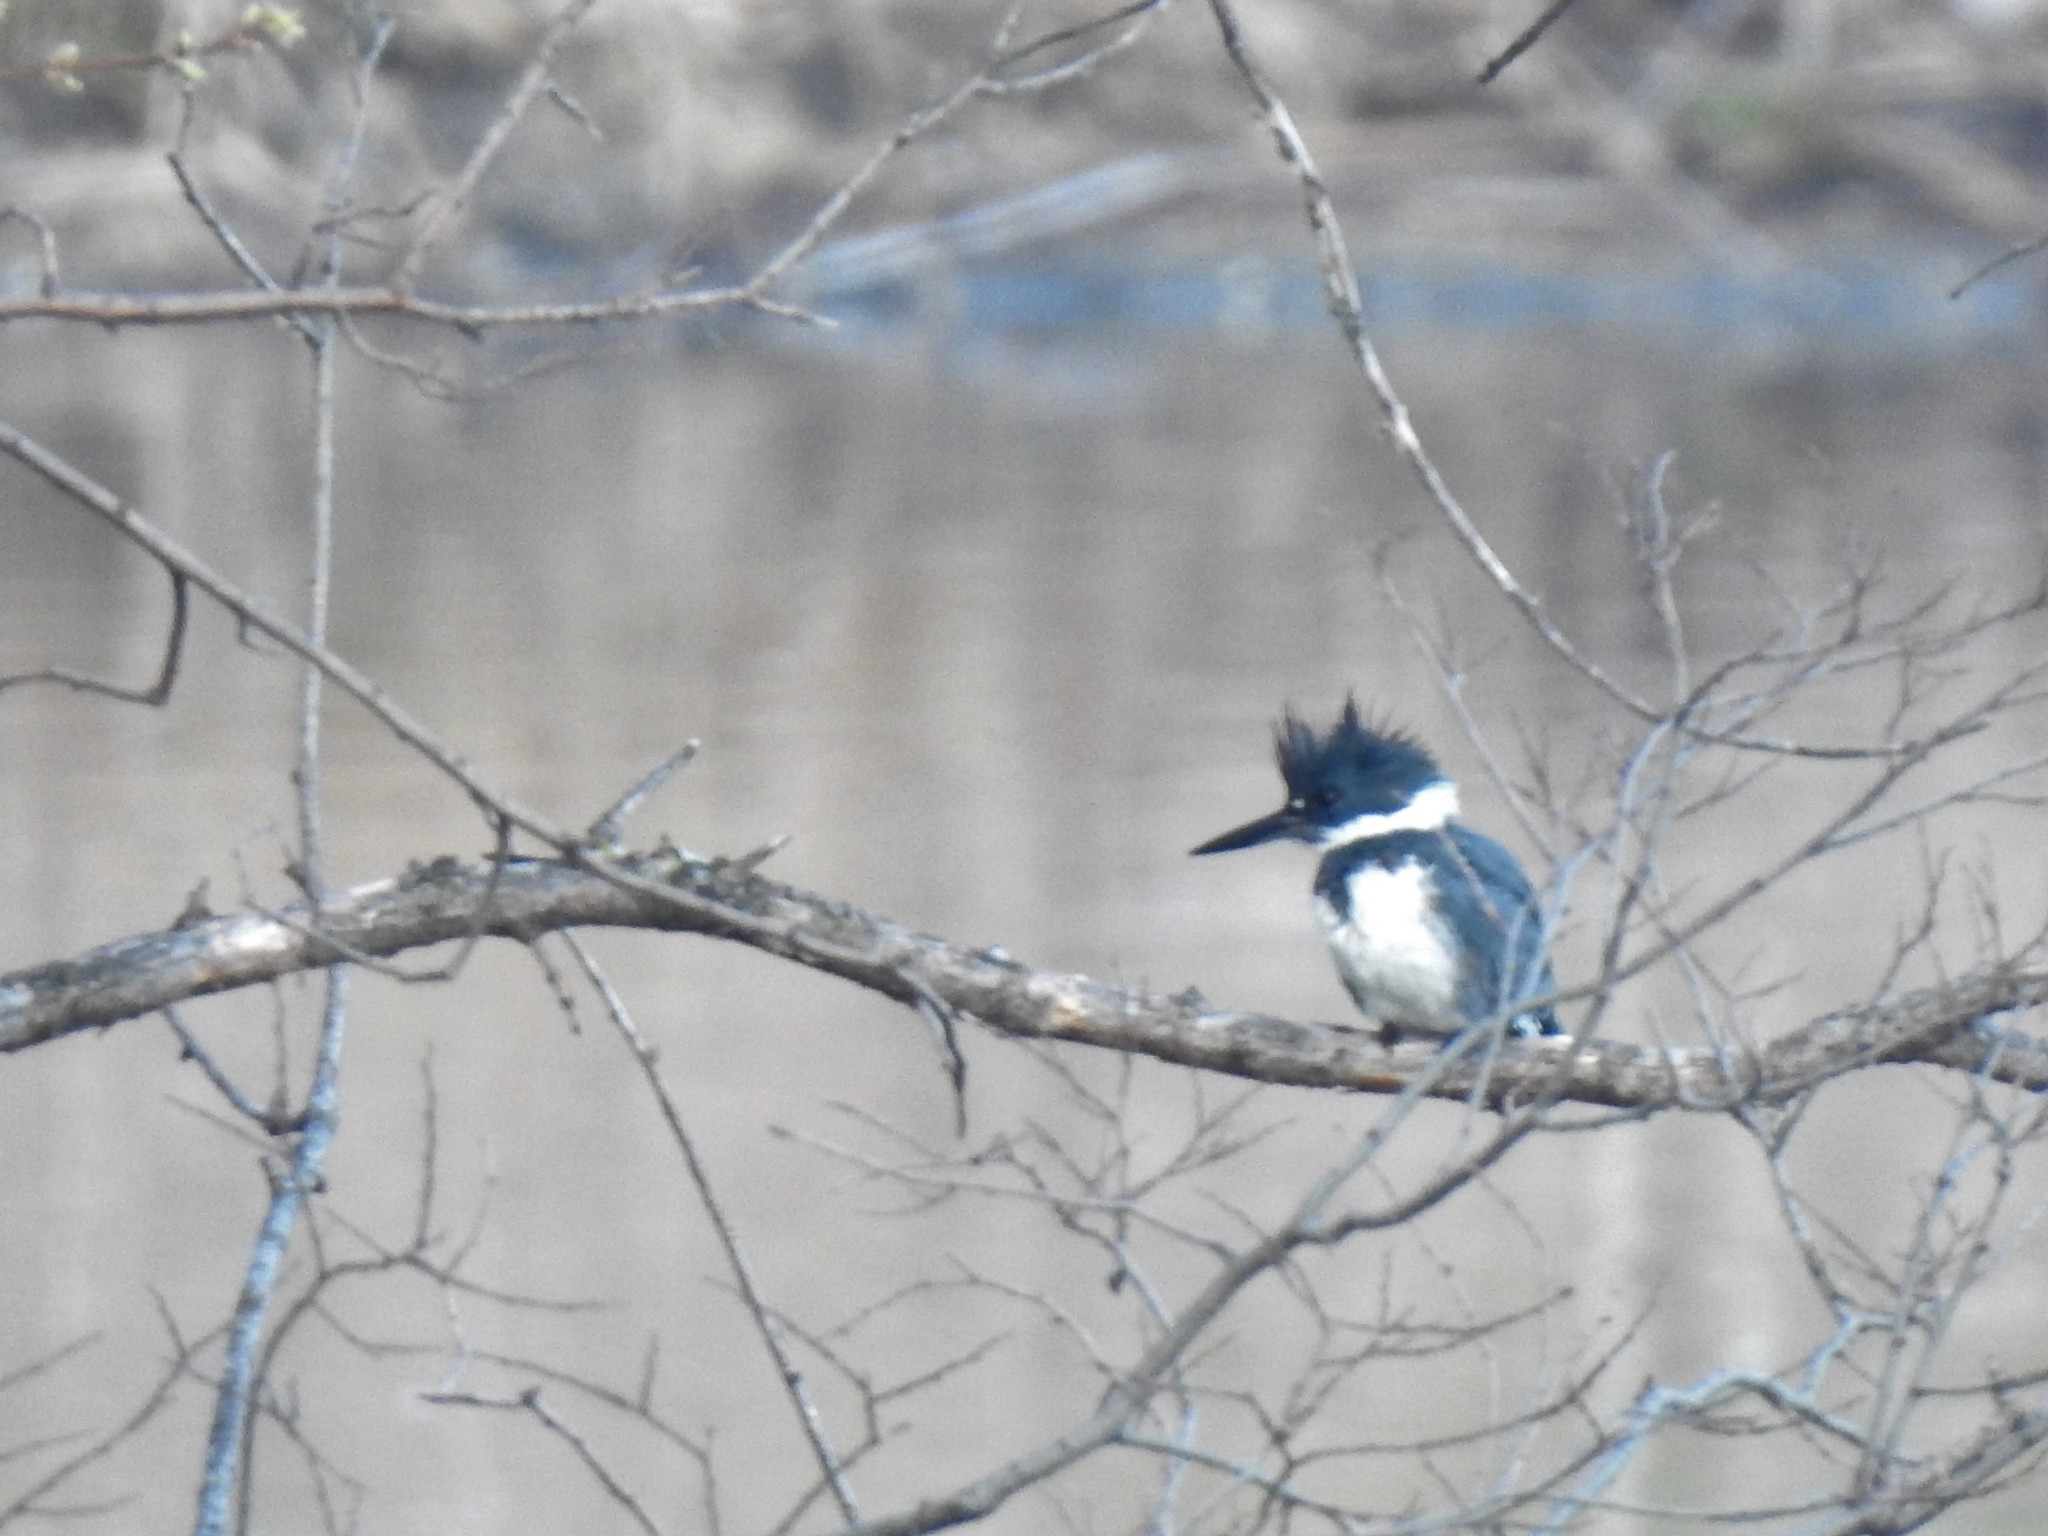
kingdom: Animalia
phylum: Chordata
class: Aves
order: Coraciiformes
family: Alcedinidae
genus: Megaceryle
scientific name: Megaceryle alcyon
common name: Belted kingfisher
